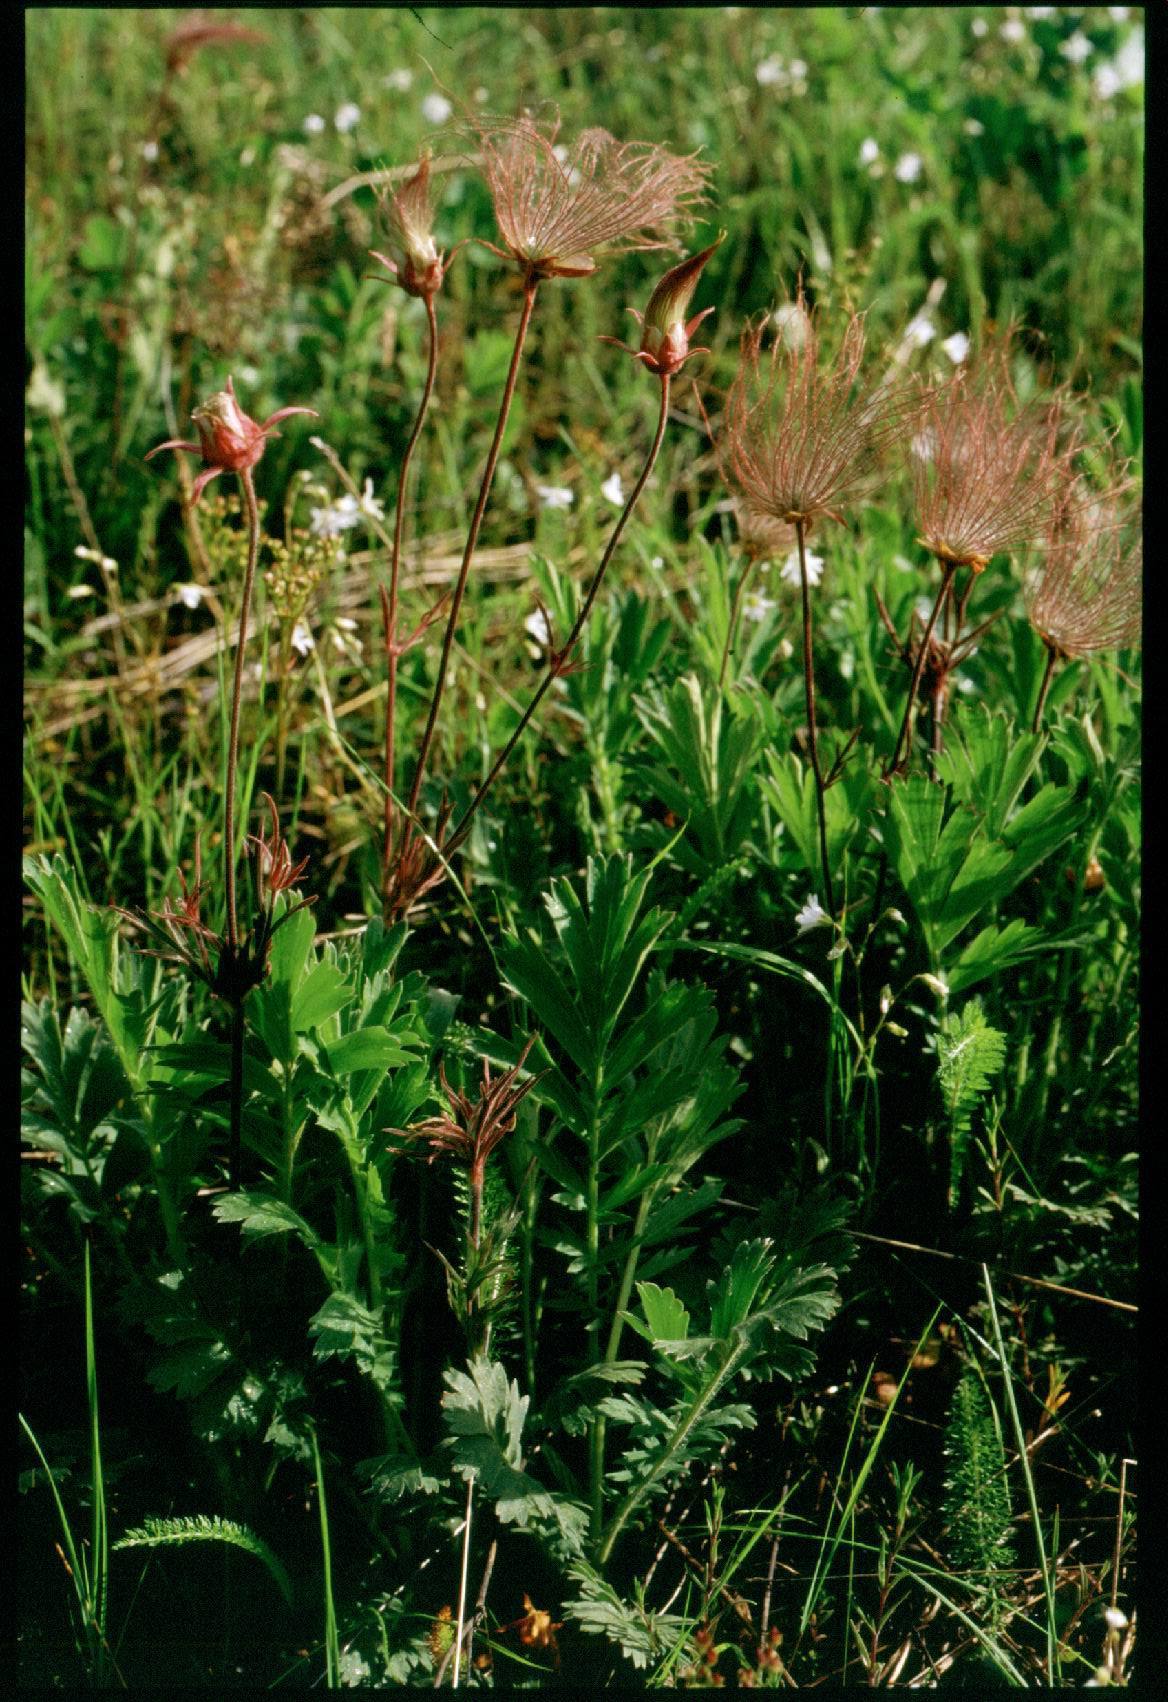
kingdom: Plantae
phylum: Tracheophyta
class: Magnoliopsida
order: Rosales
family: Rosaceae
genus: Geum
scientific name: Geum triflorum
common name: Old man's whiskers
